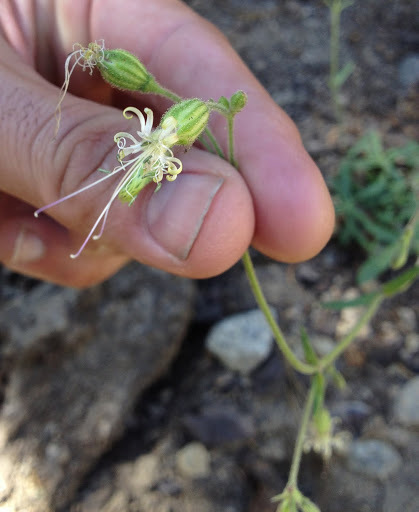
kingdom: Plantae
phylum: Tracheophyta
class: Magnoliopsida
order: Caryophyllales
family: Caryophyllaceae
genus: Silene
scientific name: Silene lemmonii
